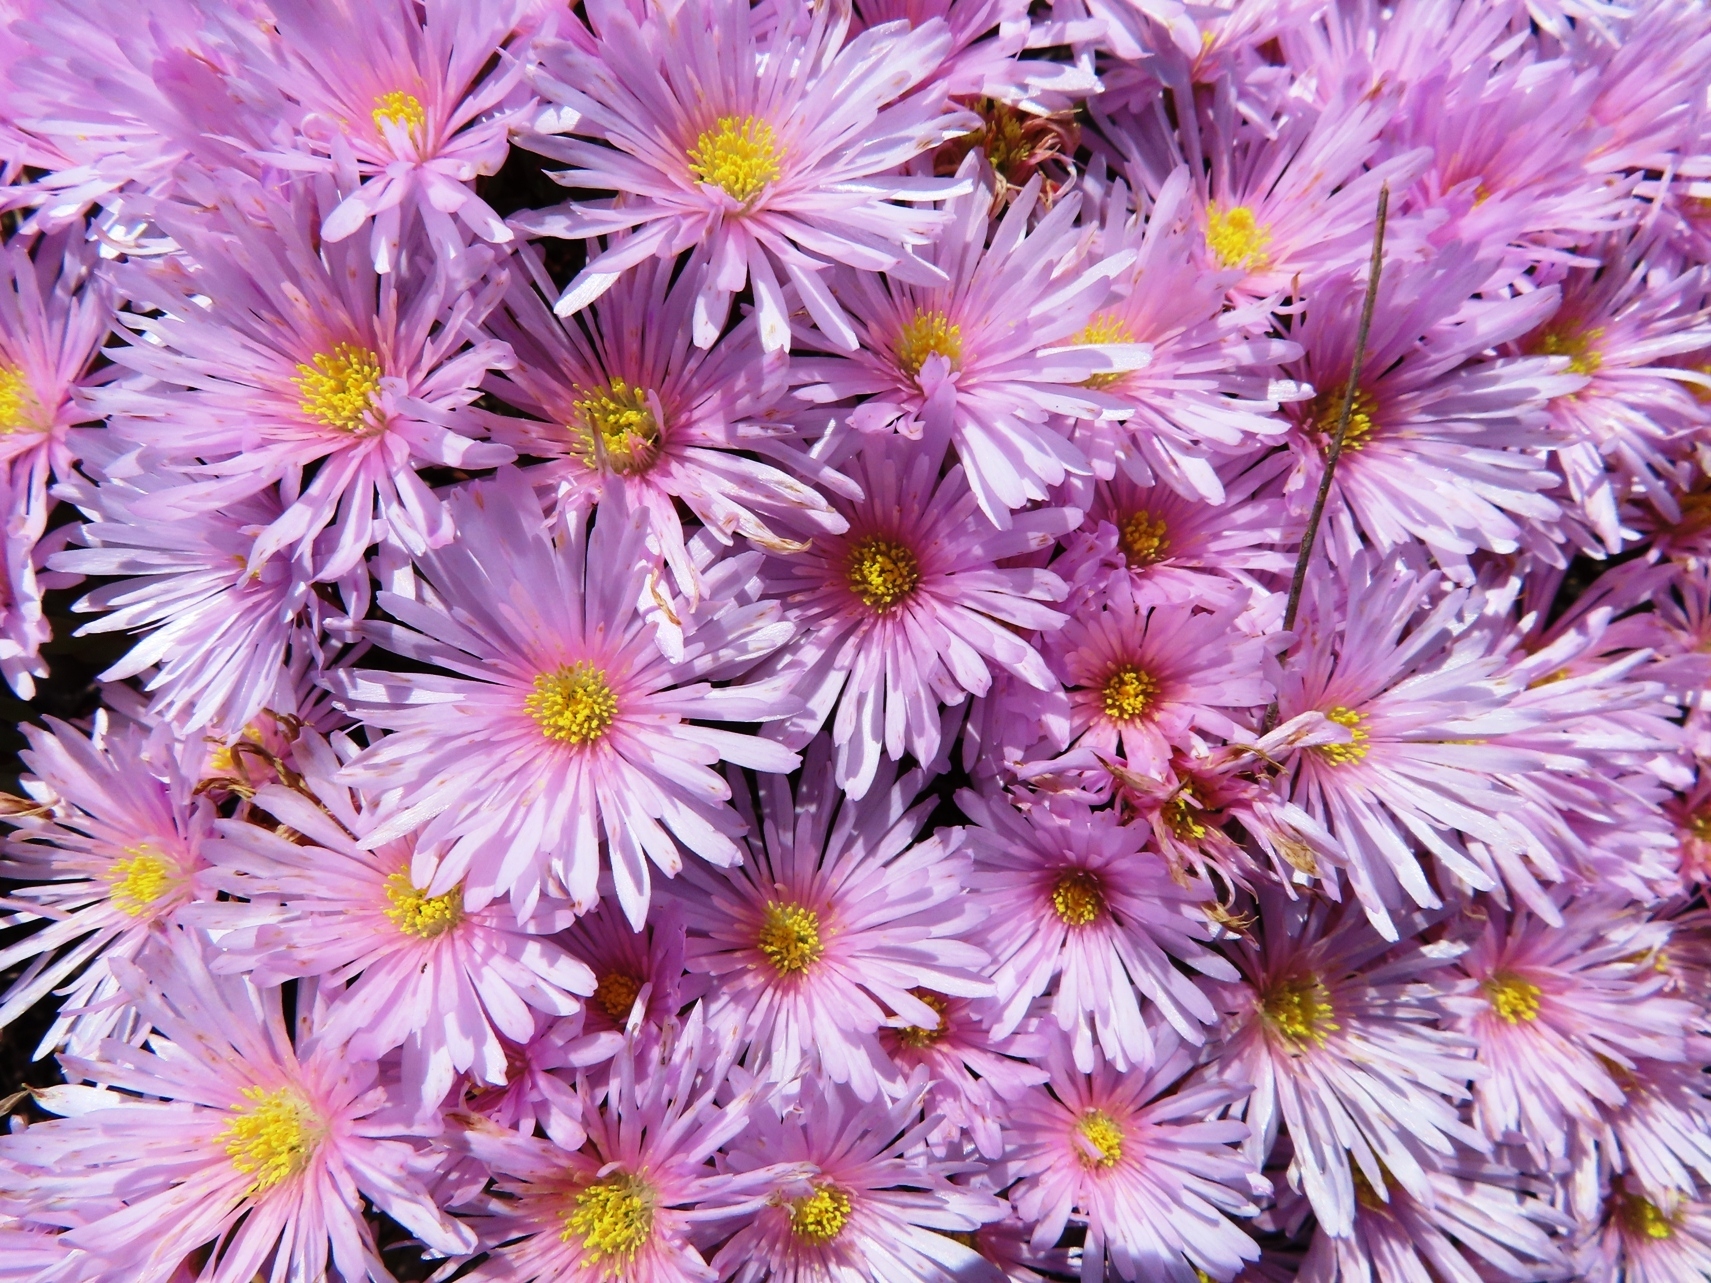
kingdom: Plantae
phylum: Tracheophyta
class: Magnoliopsida
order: Caryophyllales
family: Aizoaceae
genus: Lampranthus
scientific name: Lampranthus ceriseus
